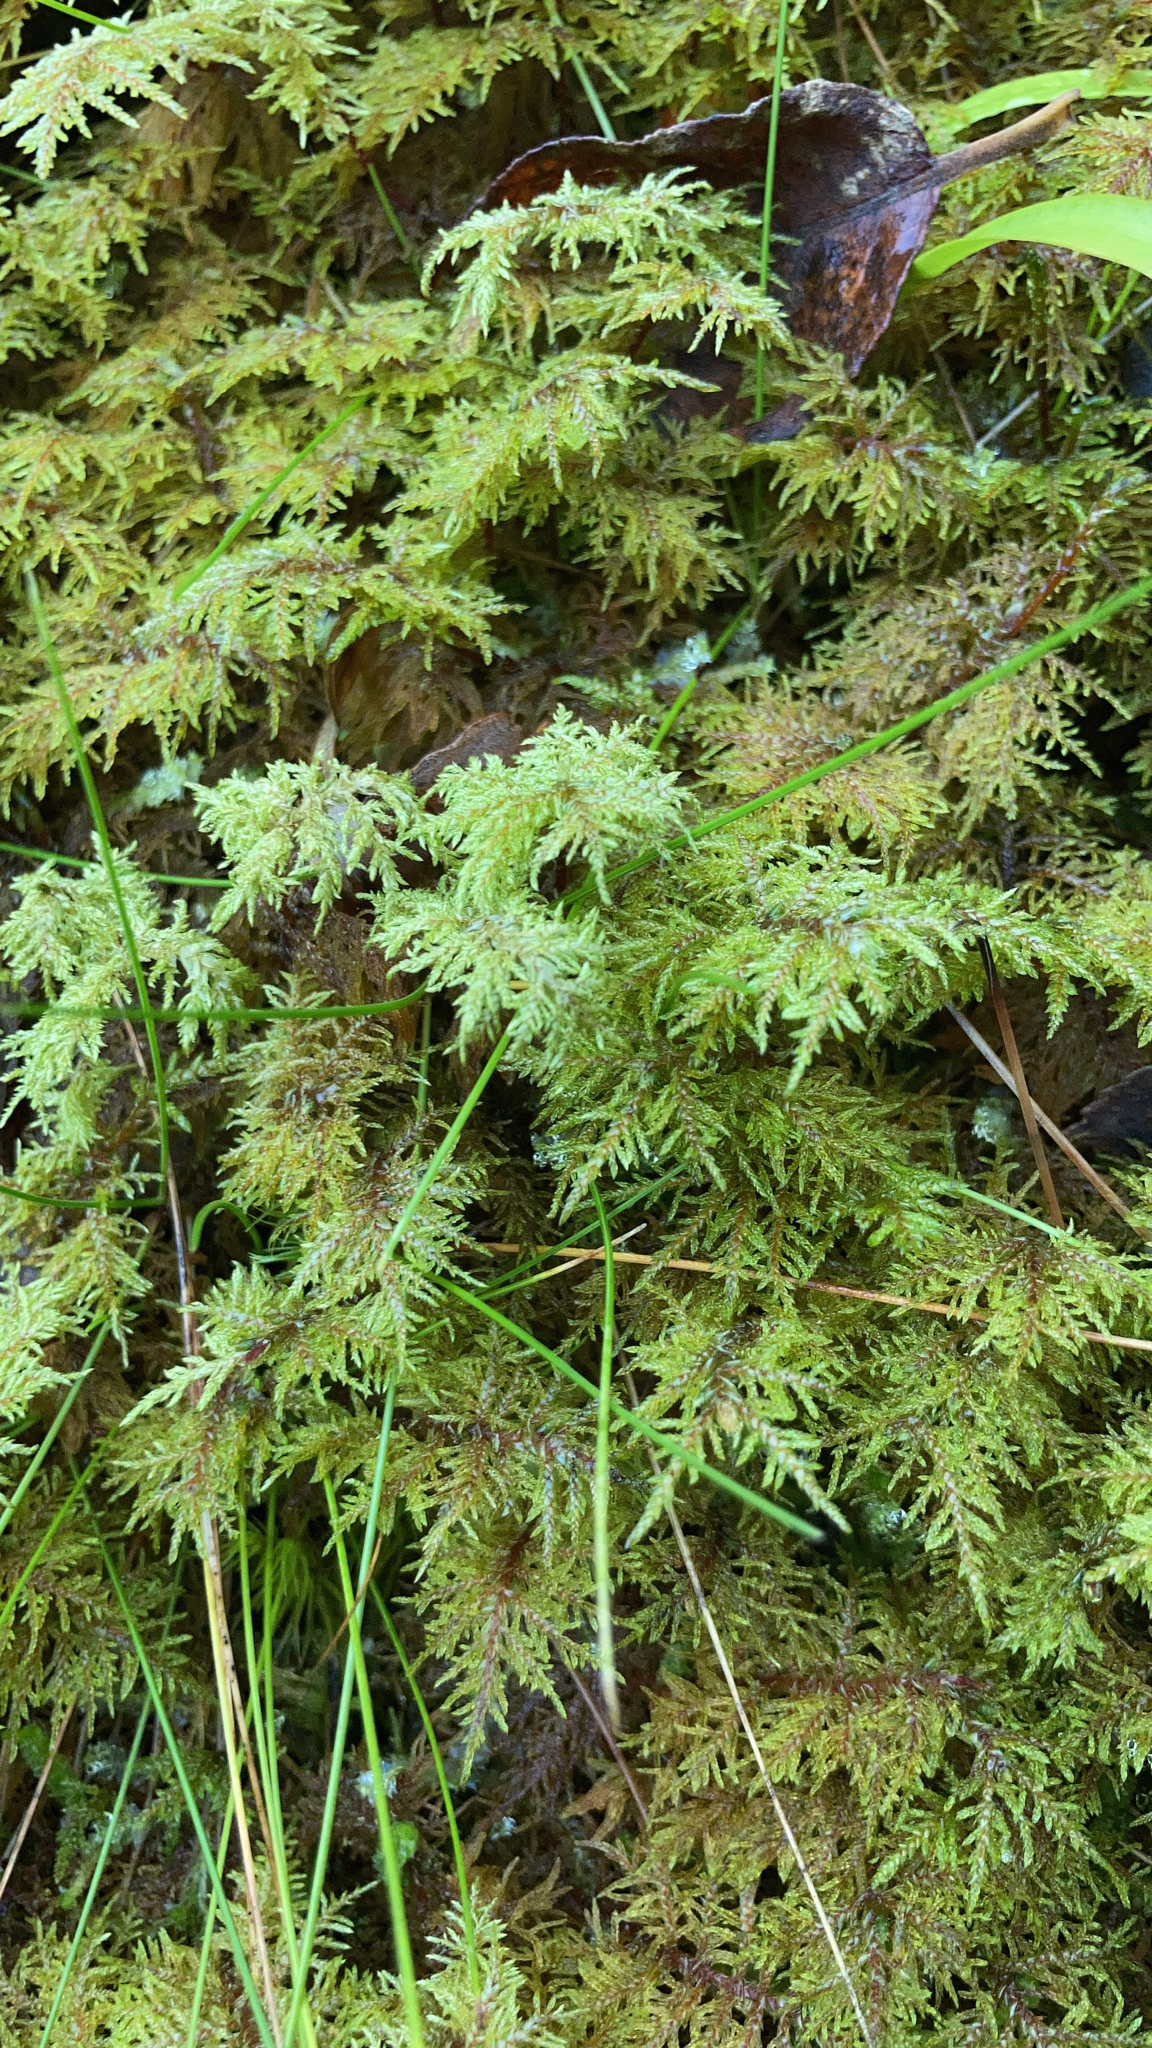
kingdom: Plantae
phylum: Bryophyta
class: Bryopsida
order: Hypnales
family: Hylocomiaceae
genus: Hylocomium
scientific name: Hylocomium splendens
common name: Stairstep moss
